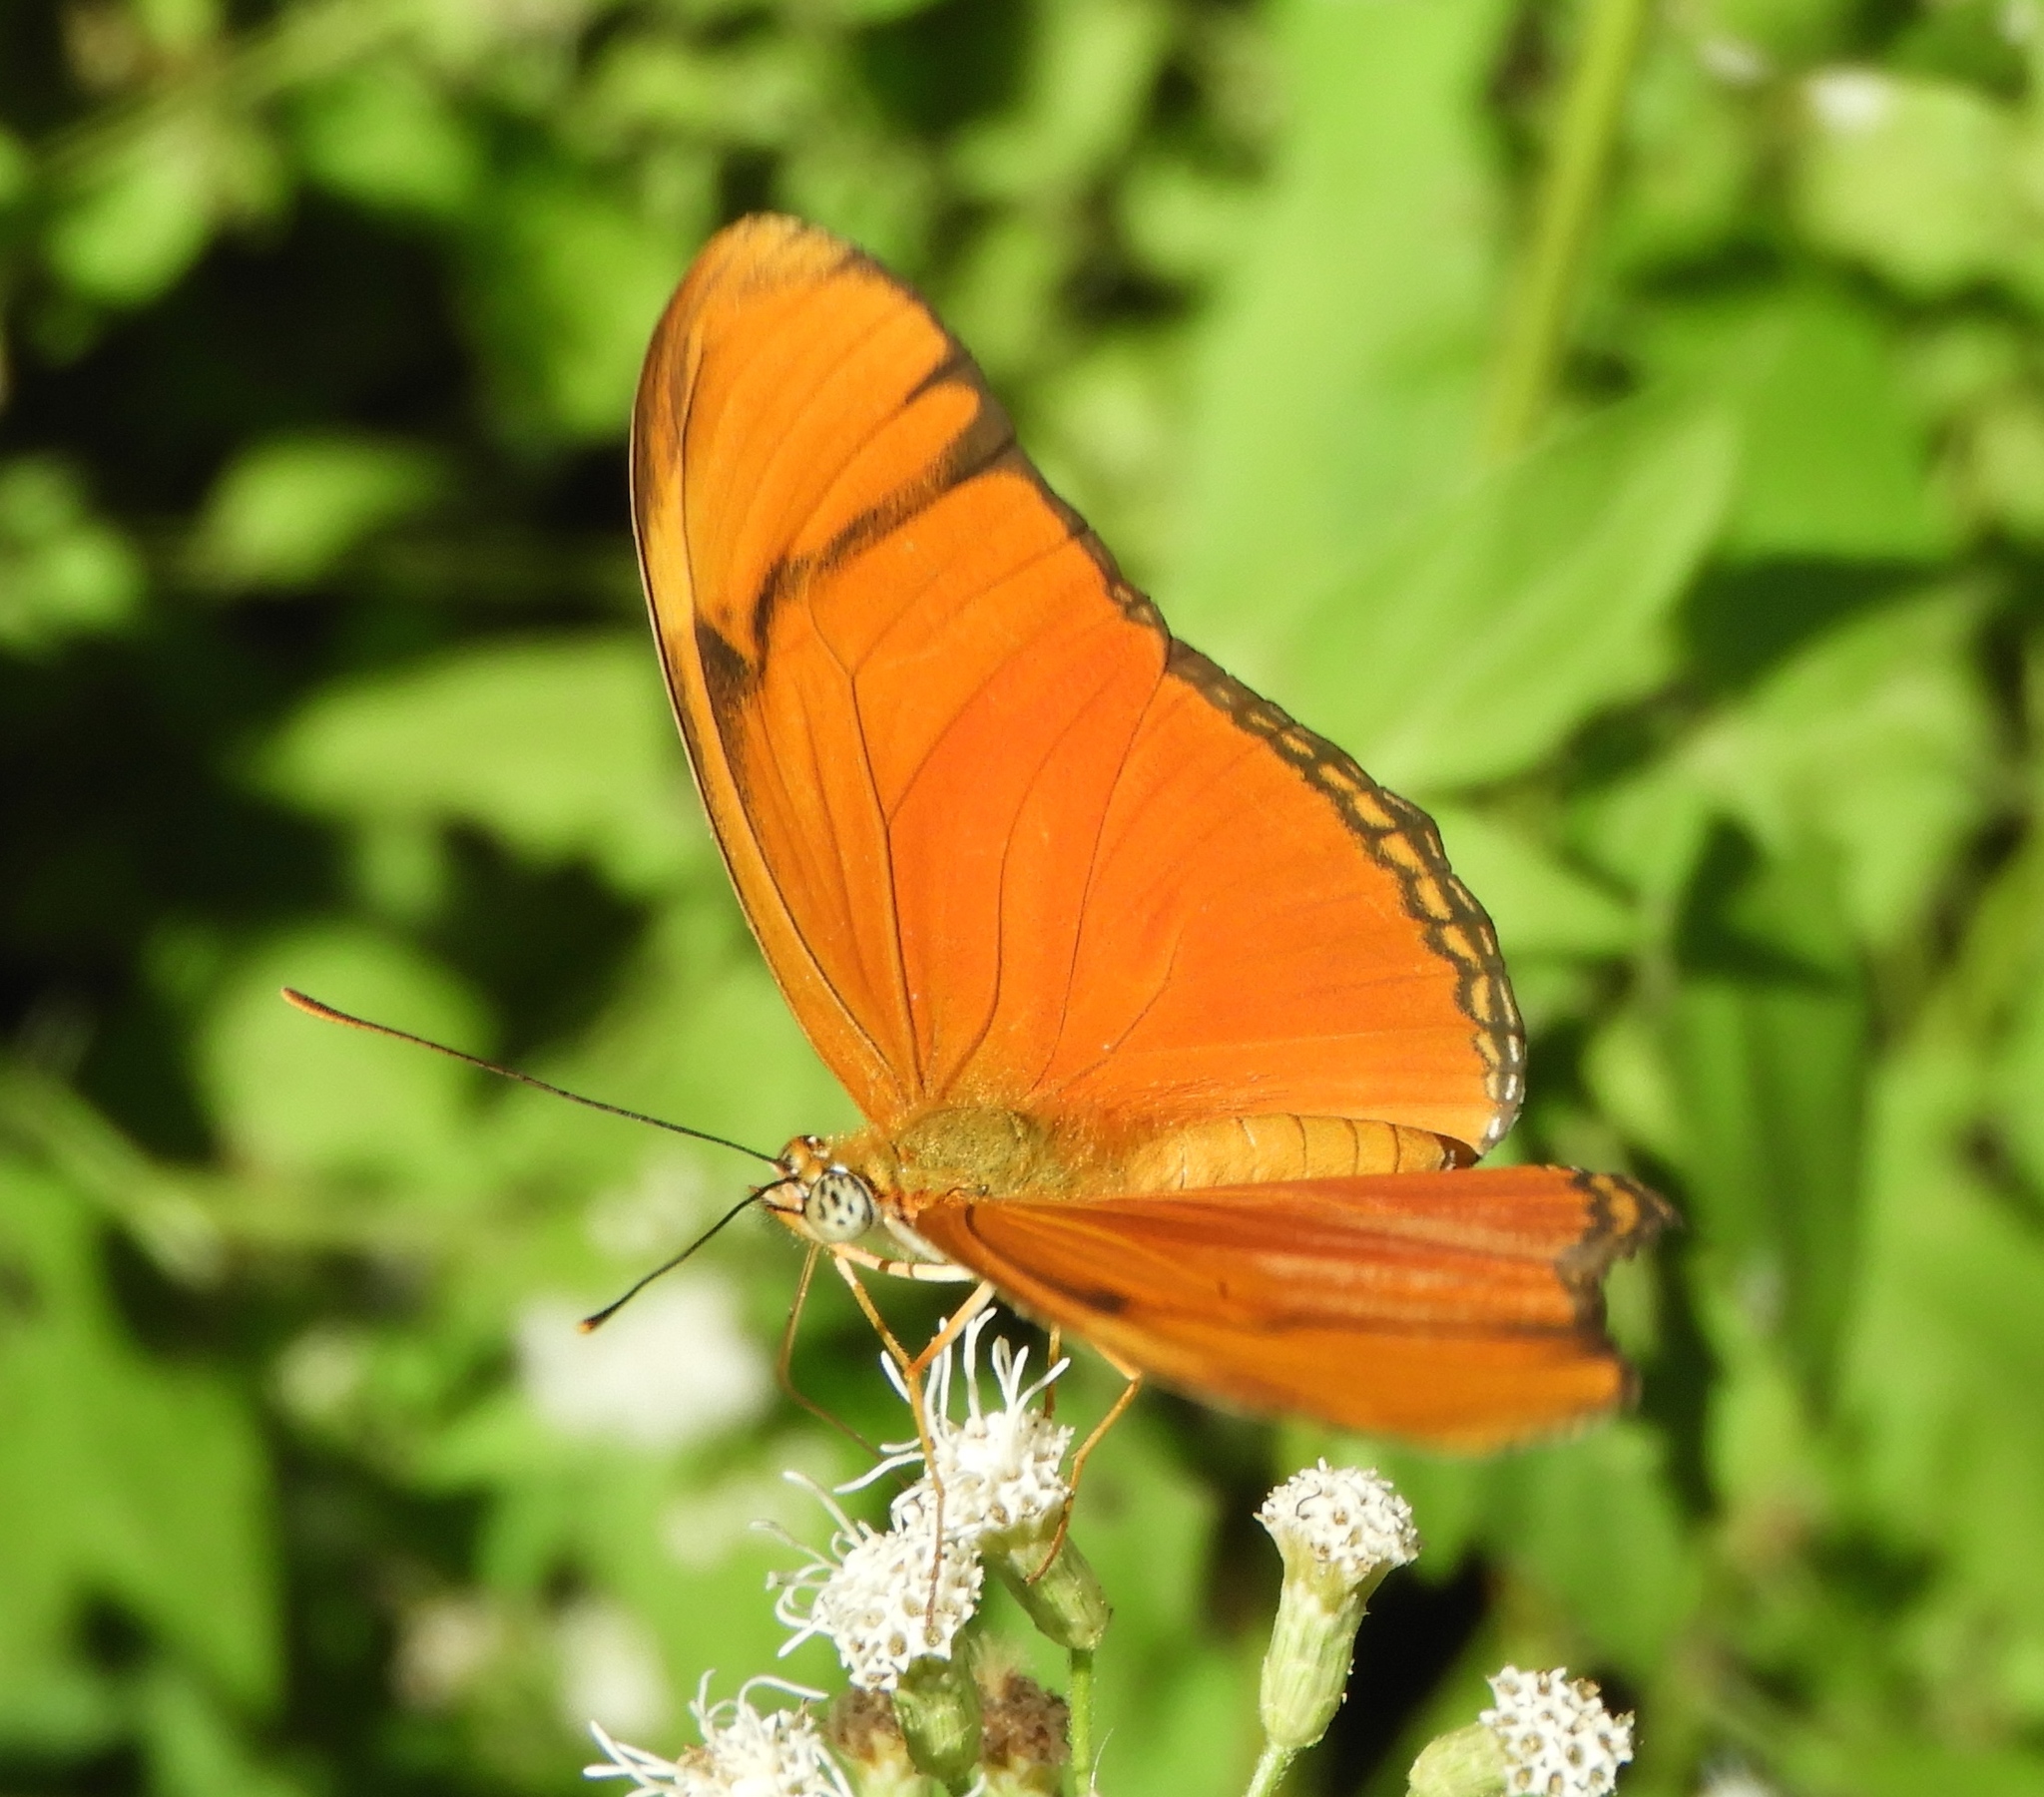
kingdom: Animalia
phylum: Arthropoda
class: Insecta
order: Lepidoptera
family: Nymphalidae
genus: Dryas
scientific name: Dryas iulia
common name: Flambeau
